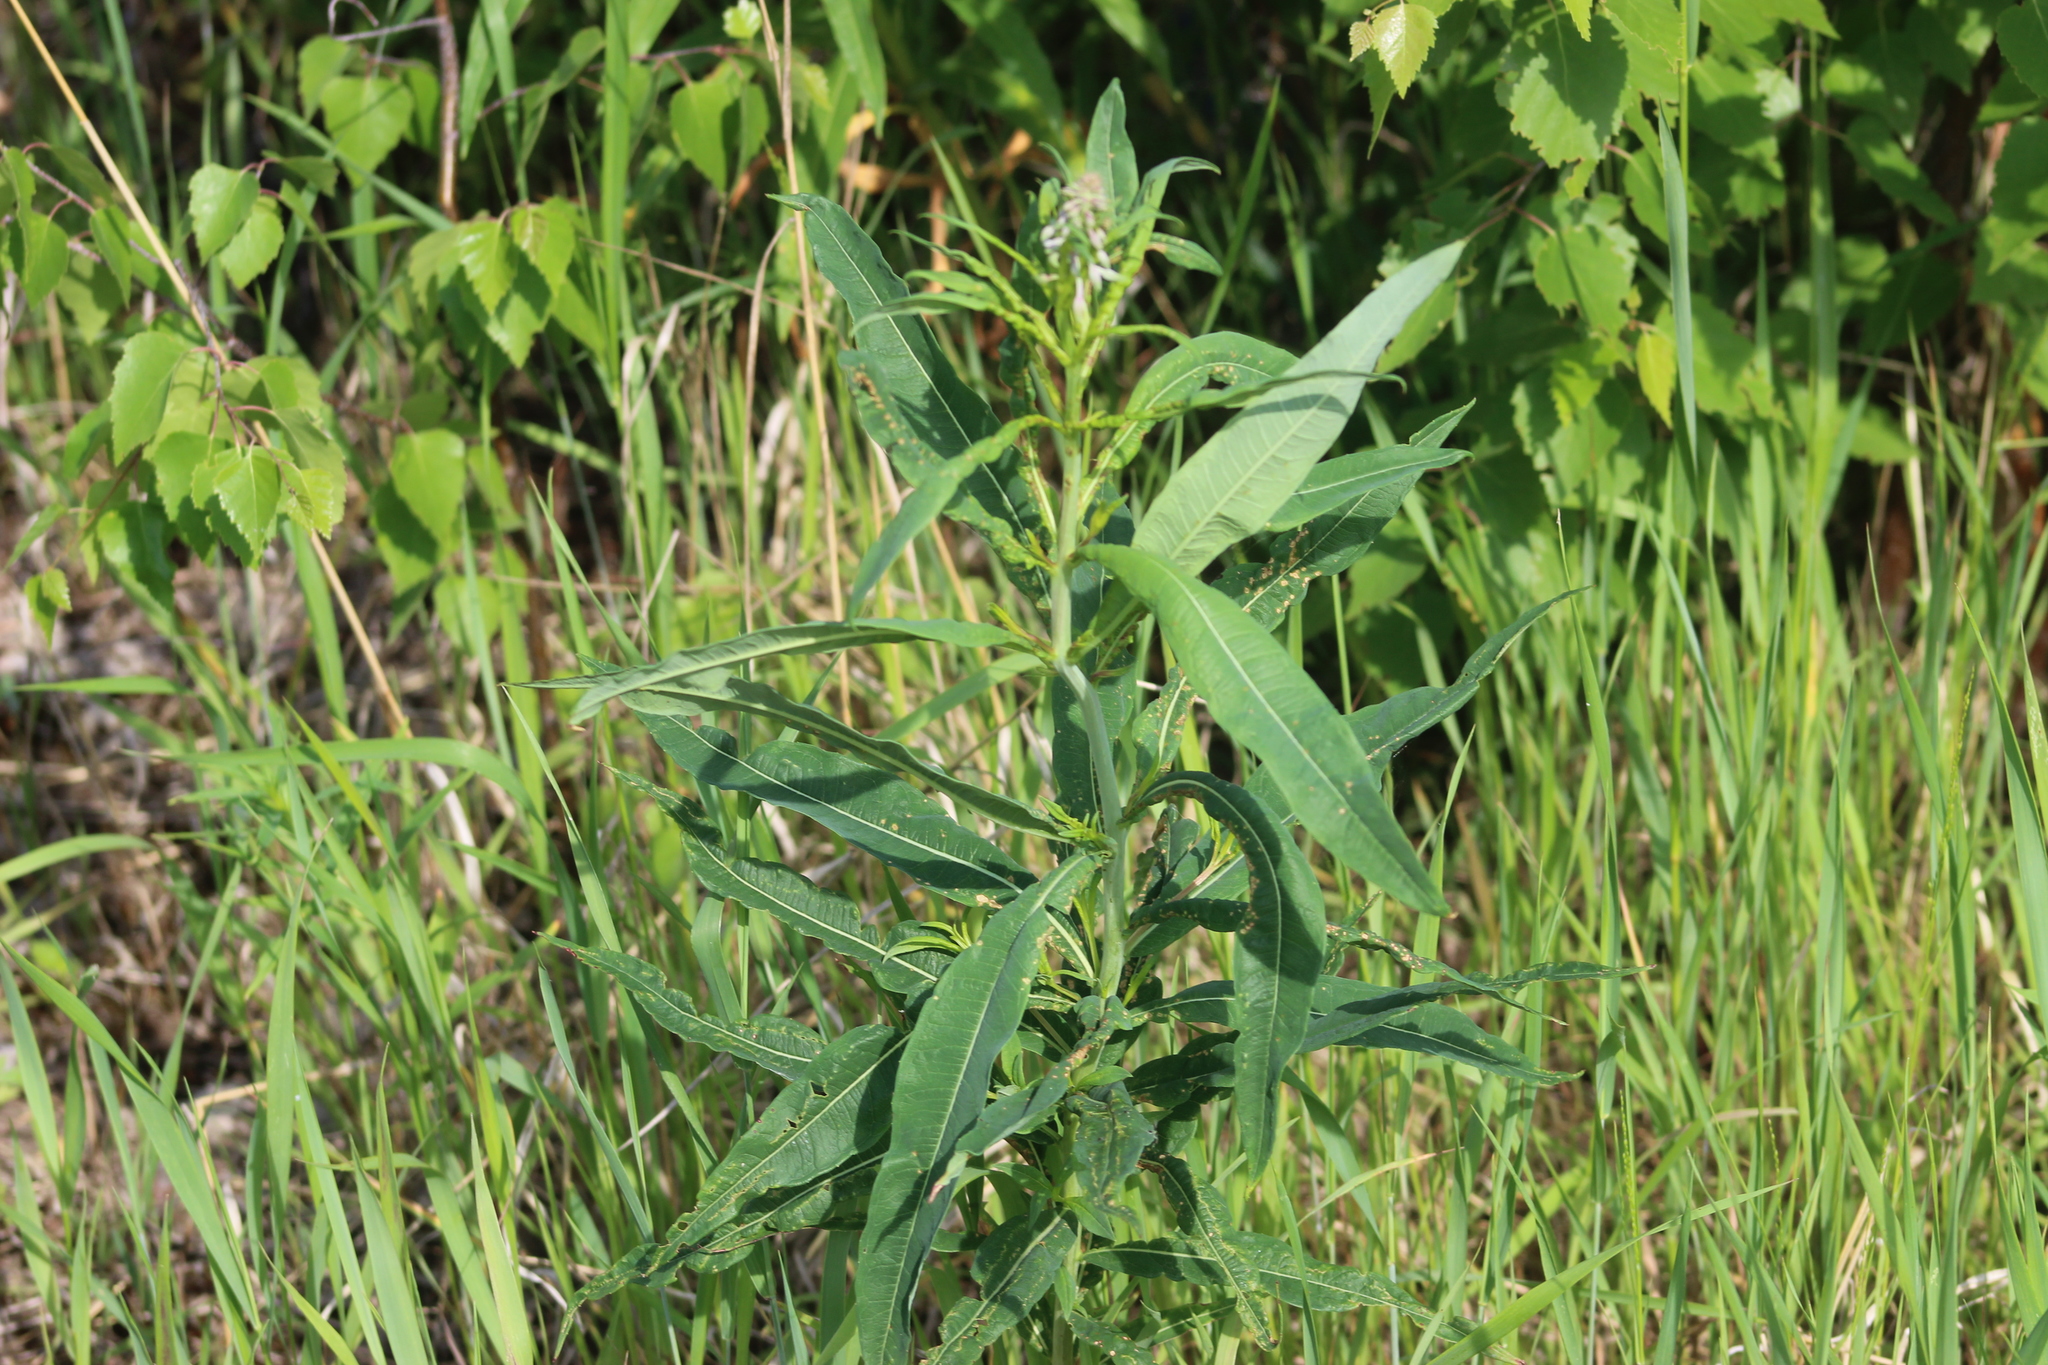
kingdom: Plantae
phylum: Tracheophyta
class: Magnoliopsida
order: Myrtales
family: Onagraceae
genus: Chamaenerion
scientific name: Chamaenerion angustifolium
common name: Fireweed
